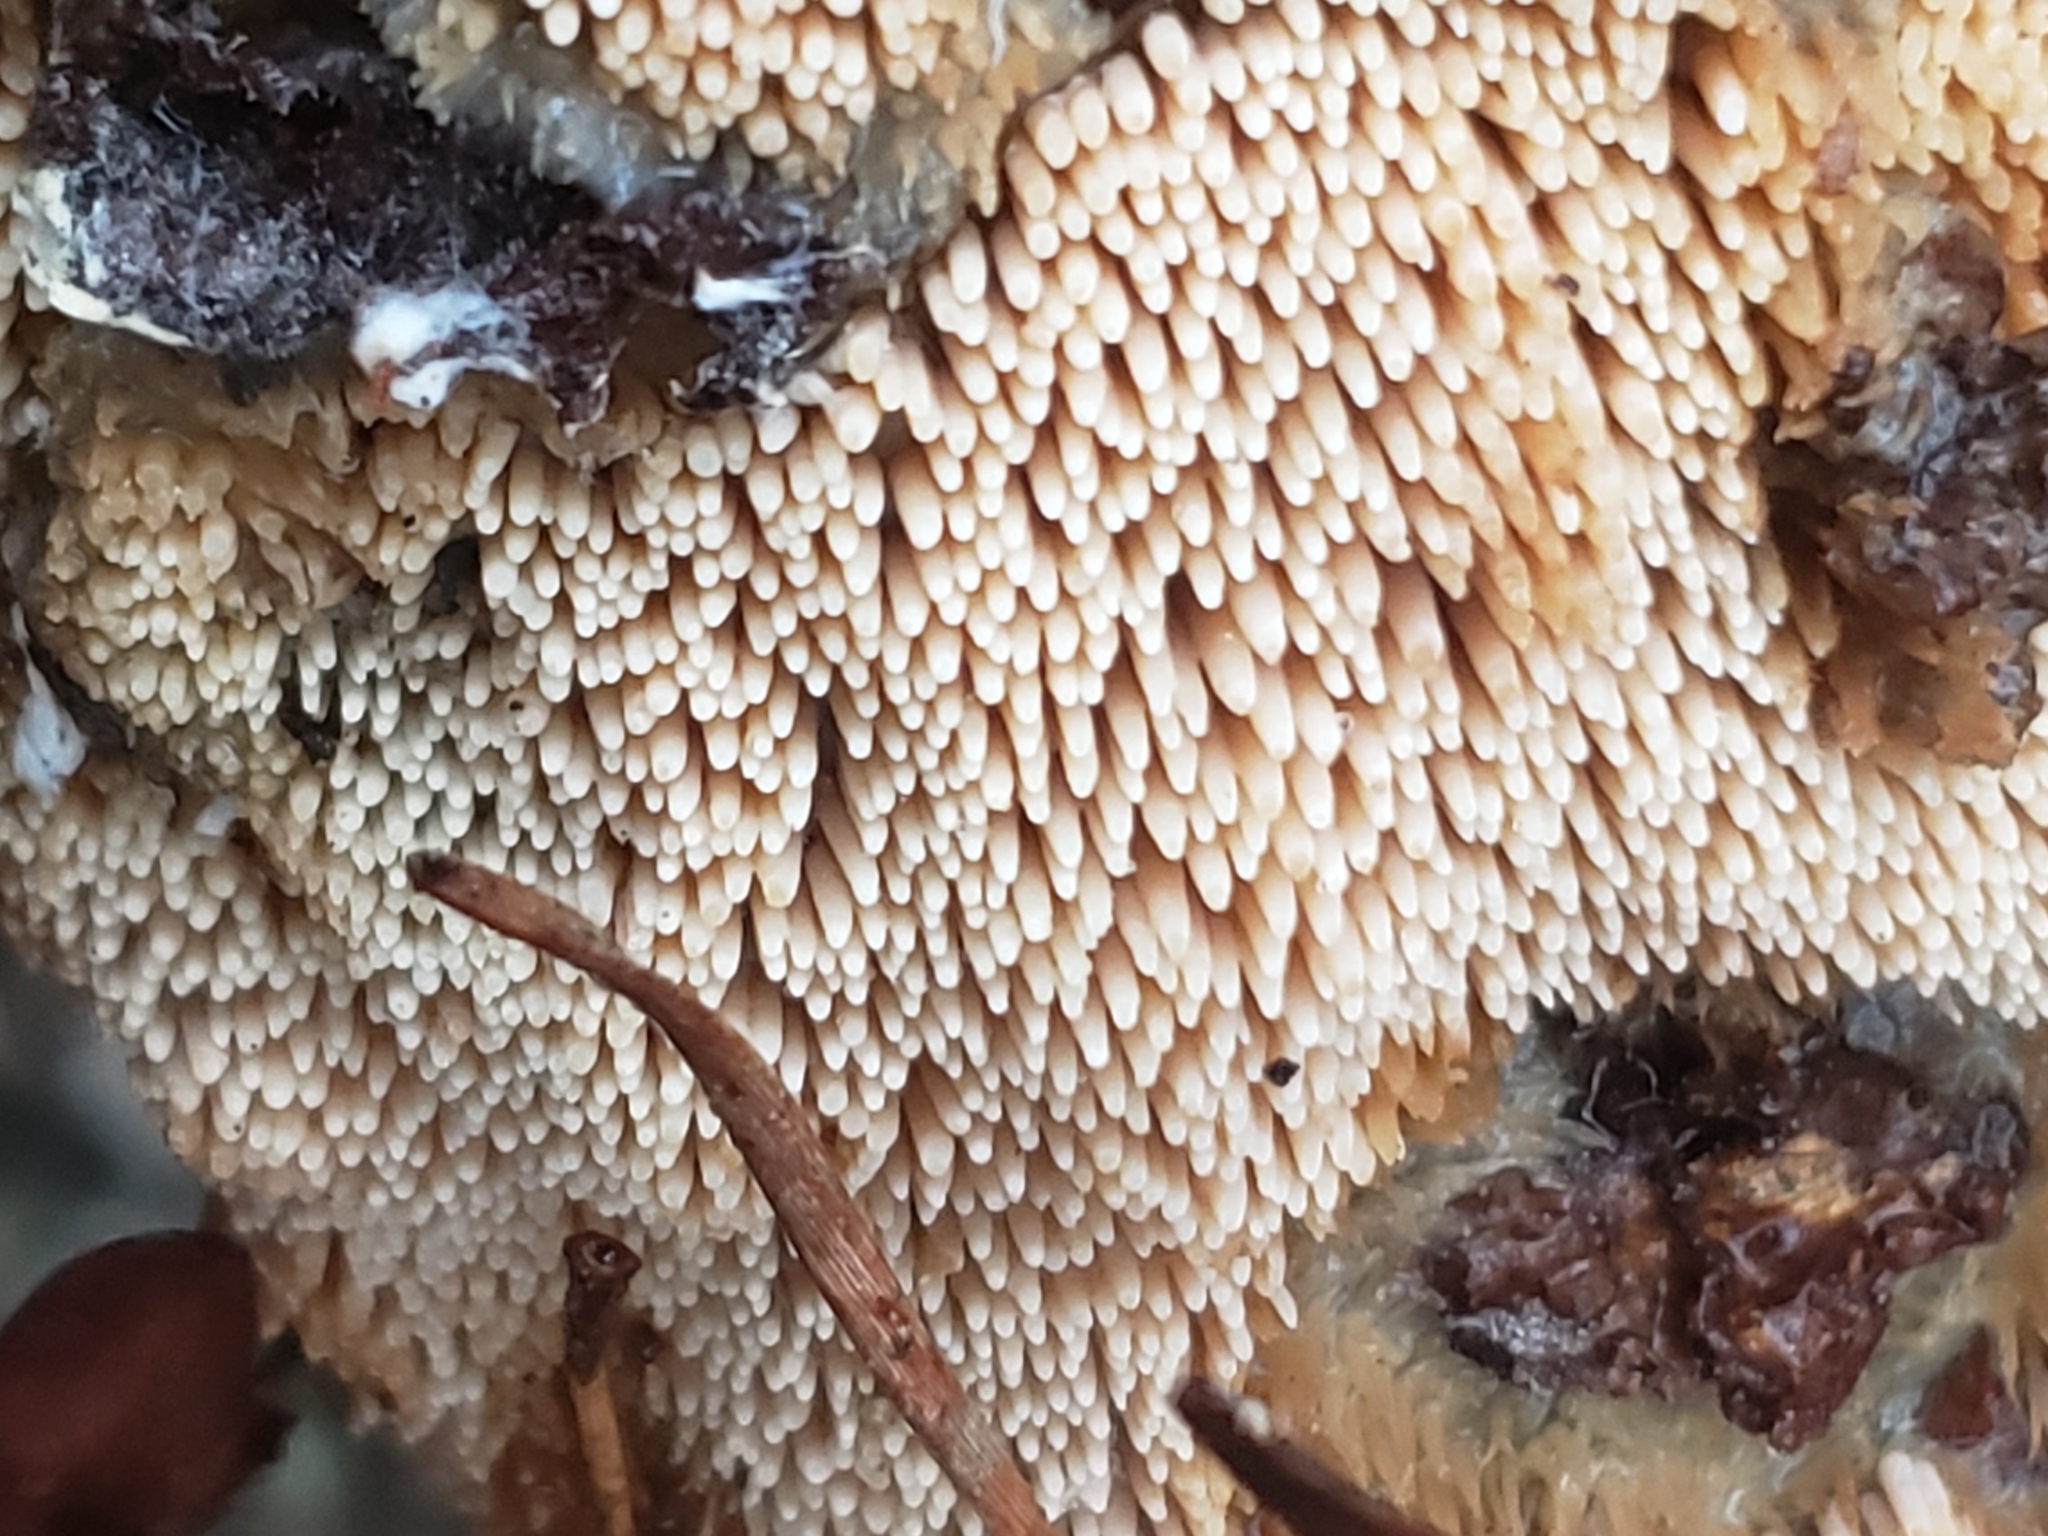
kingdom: Fungi
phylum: Basidiomycota
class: Agaricomycetes
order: Agaricales
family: Radulomycetaceae
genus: Radulomyces
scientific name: Radulomyces copelandii
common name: Asian beauty
